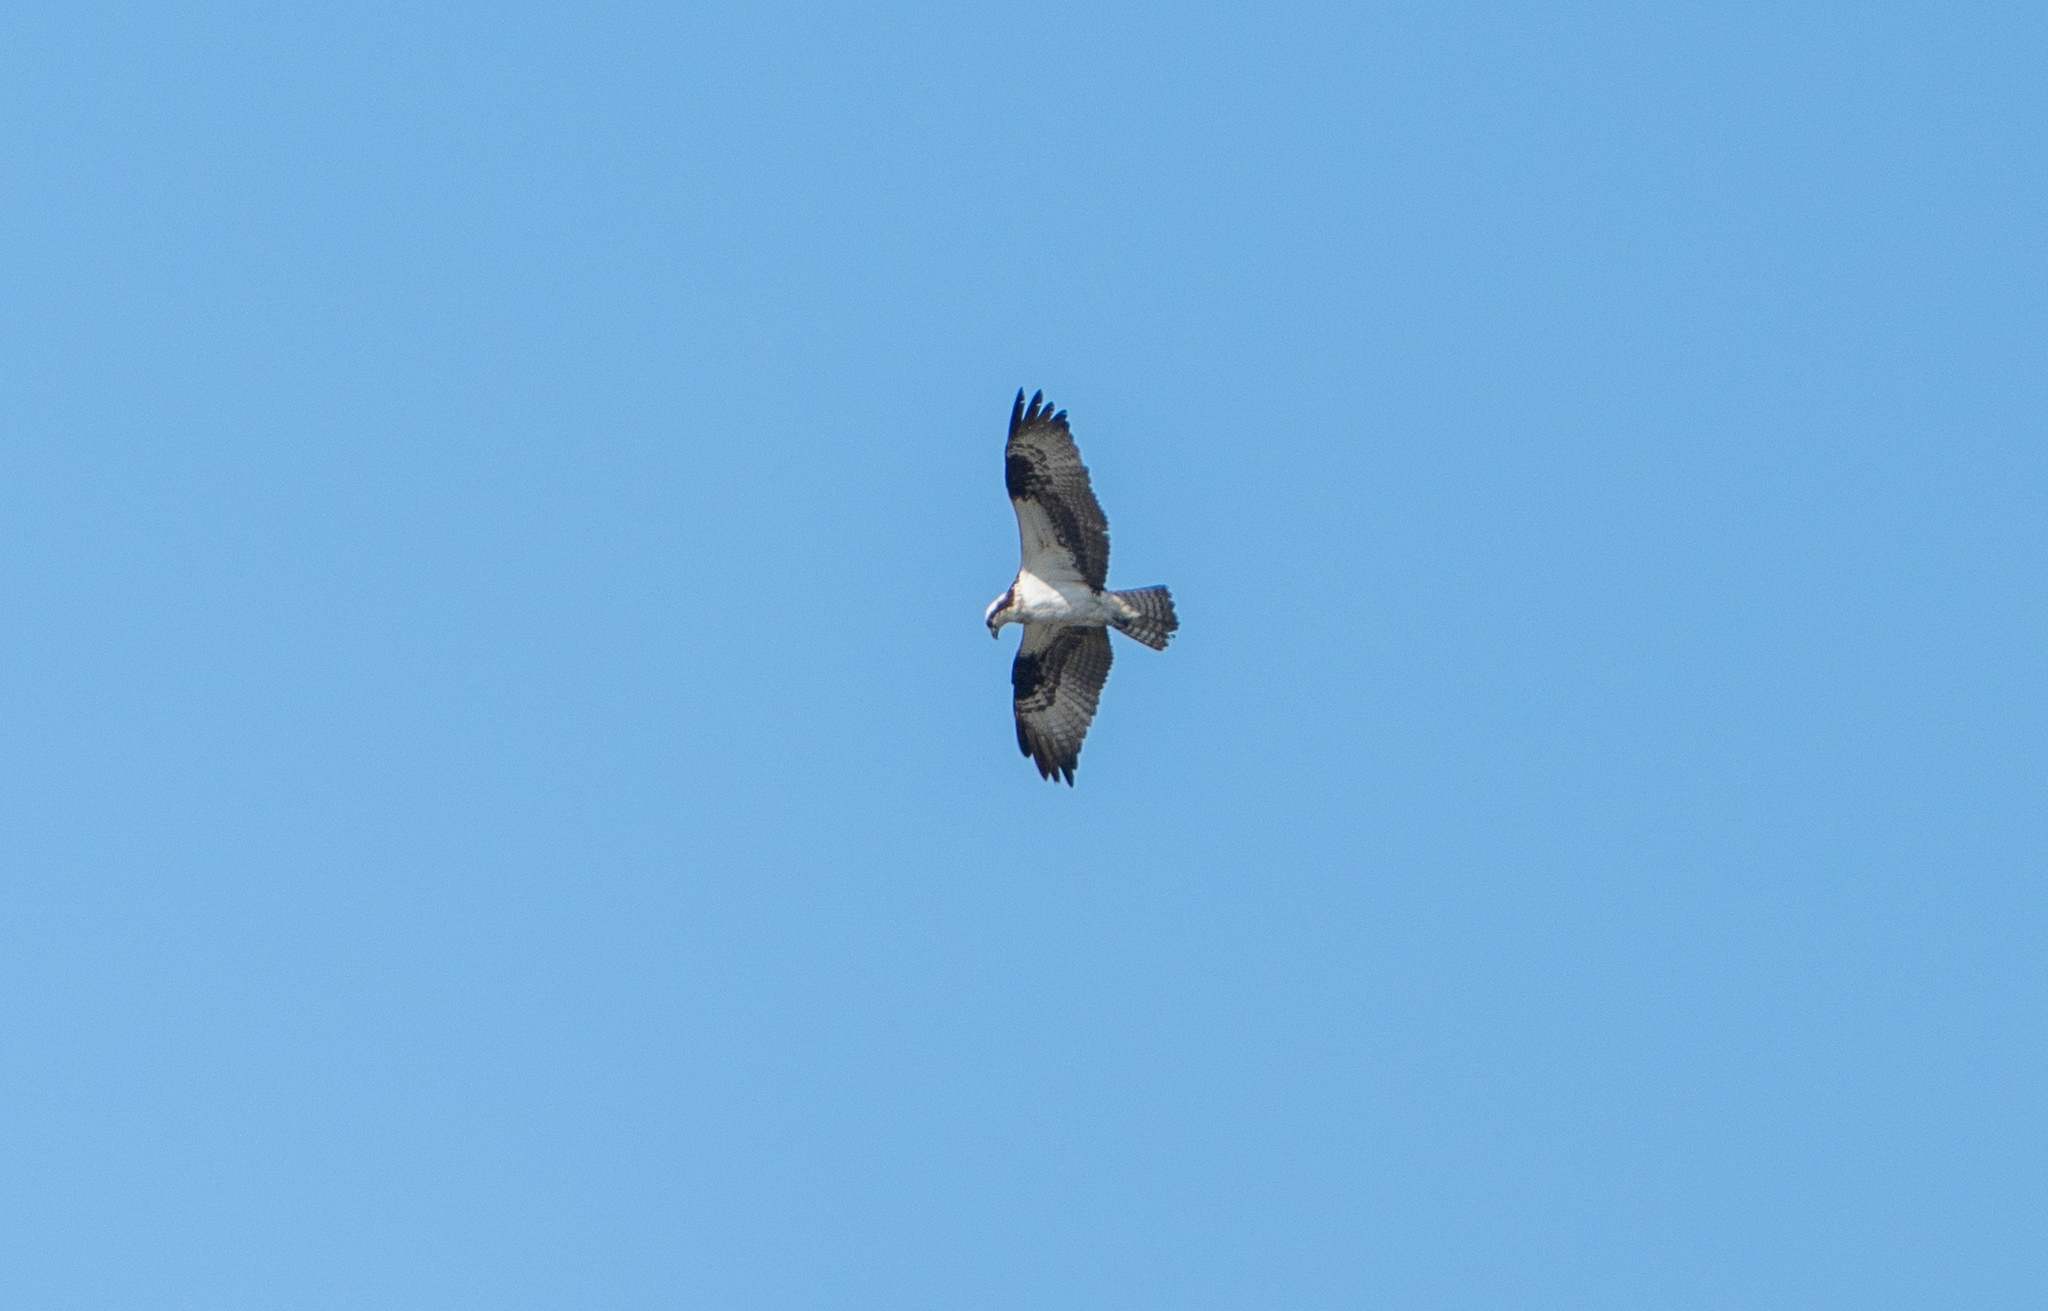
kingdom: Animalia
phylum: Chordata
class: Aves
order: Accipitriformes
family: Pandionidae
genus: Pandion
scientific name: Pandion haliaetus
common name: Osprey
